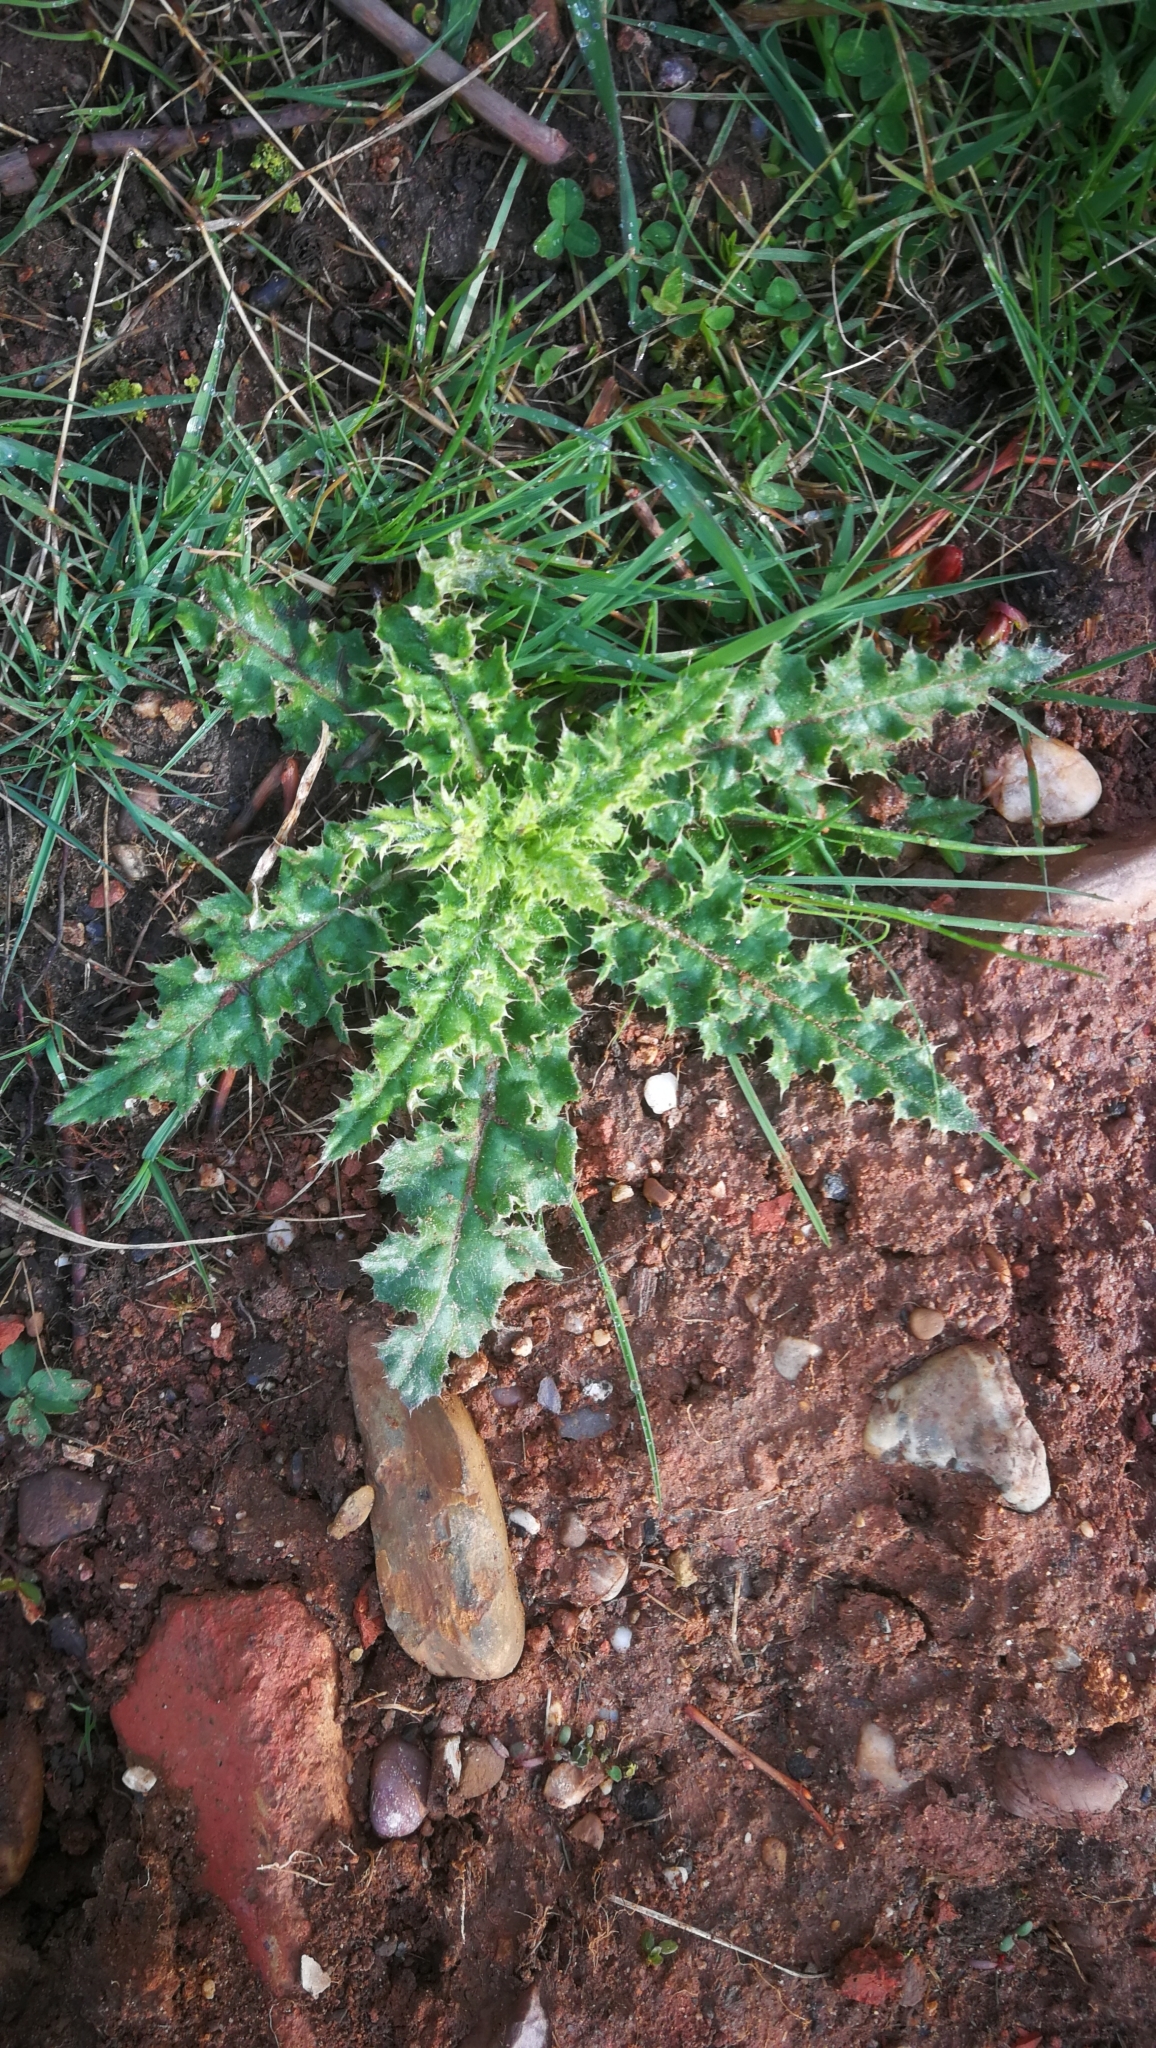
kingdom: Plantae
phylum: Tracheophyta
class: Magnoliopsida
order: Asterales
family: Asteraceae
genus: Cirsium
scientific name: Cirsium arvense
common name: Creeping thistle
